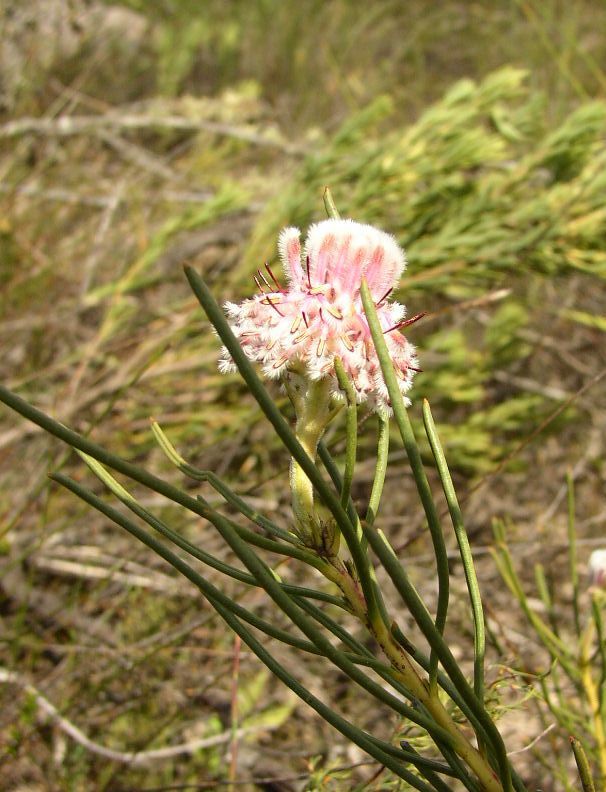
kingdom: Plantae
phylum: Tracheophyta
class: Magnoliopsida
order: Proteales
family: Proteaceae
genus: Serruria
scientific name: Serruria linearis
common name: Needle-leaf spiderhead
